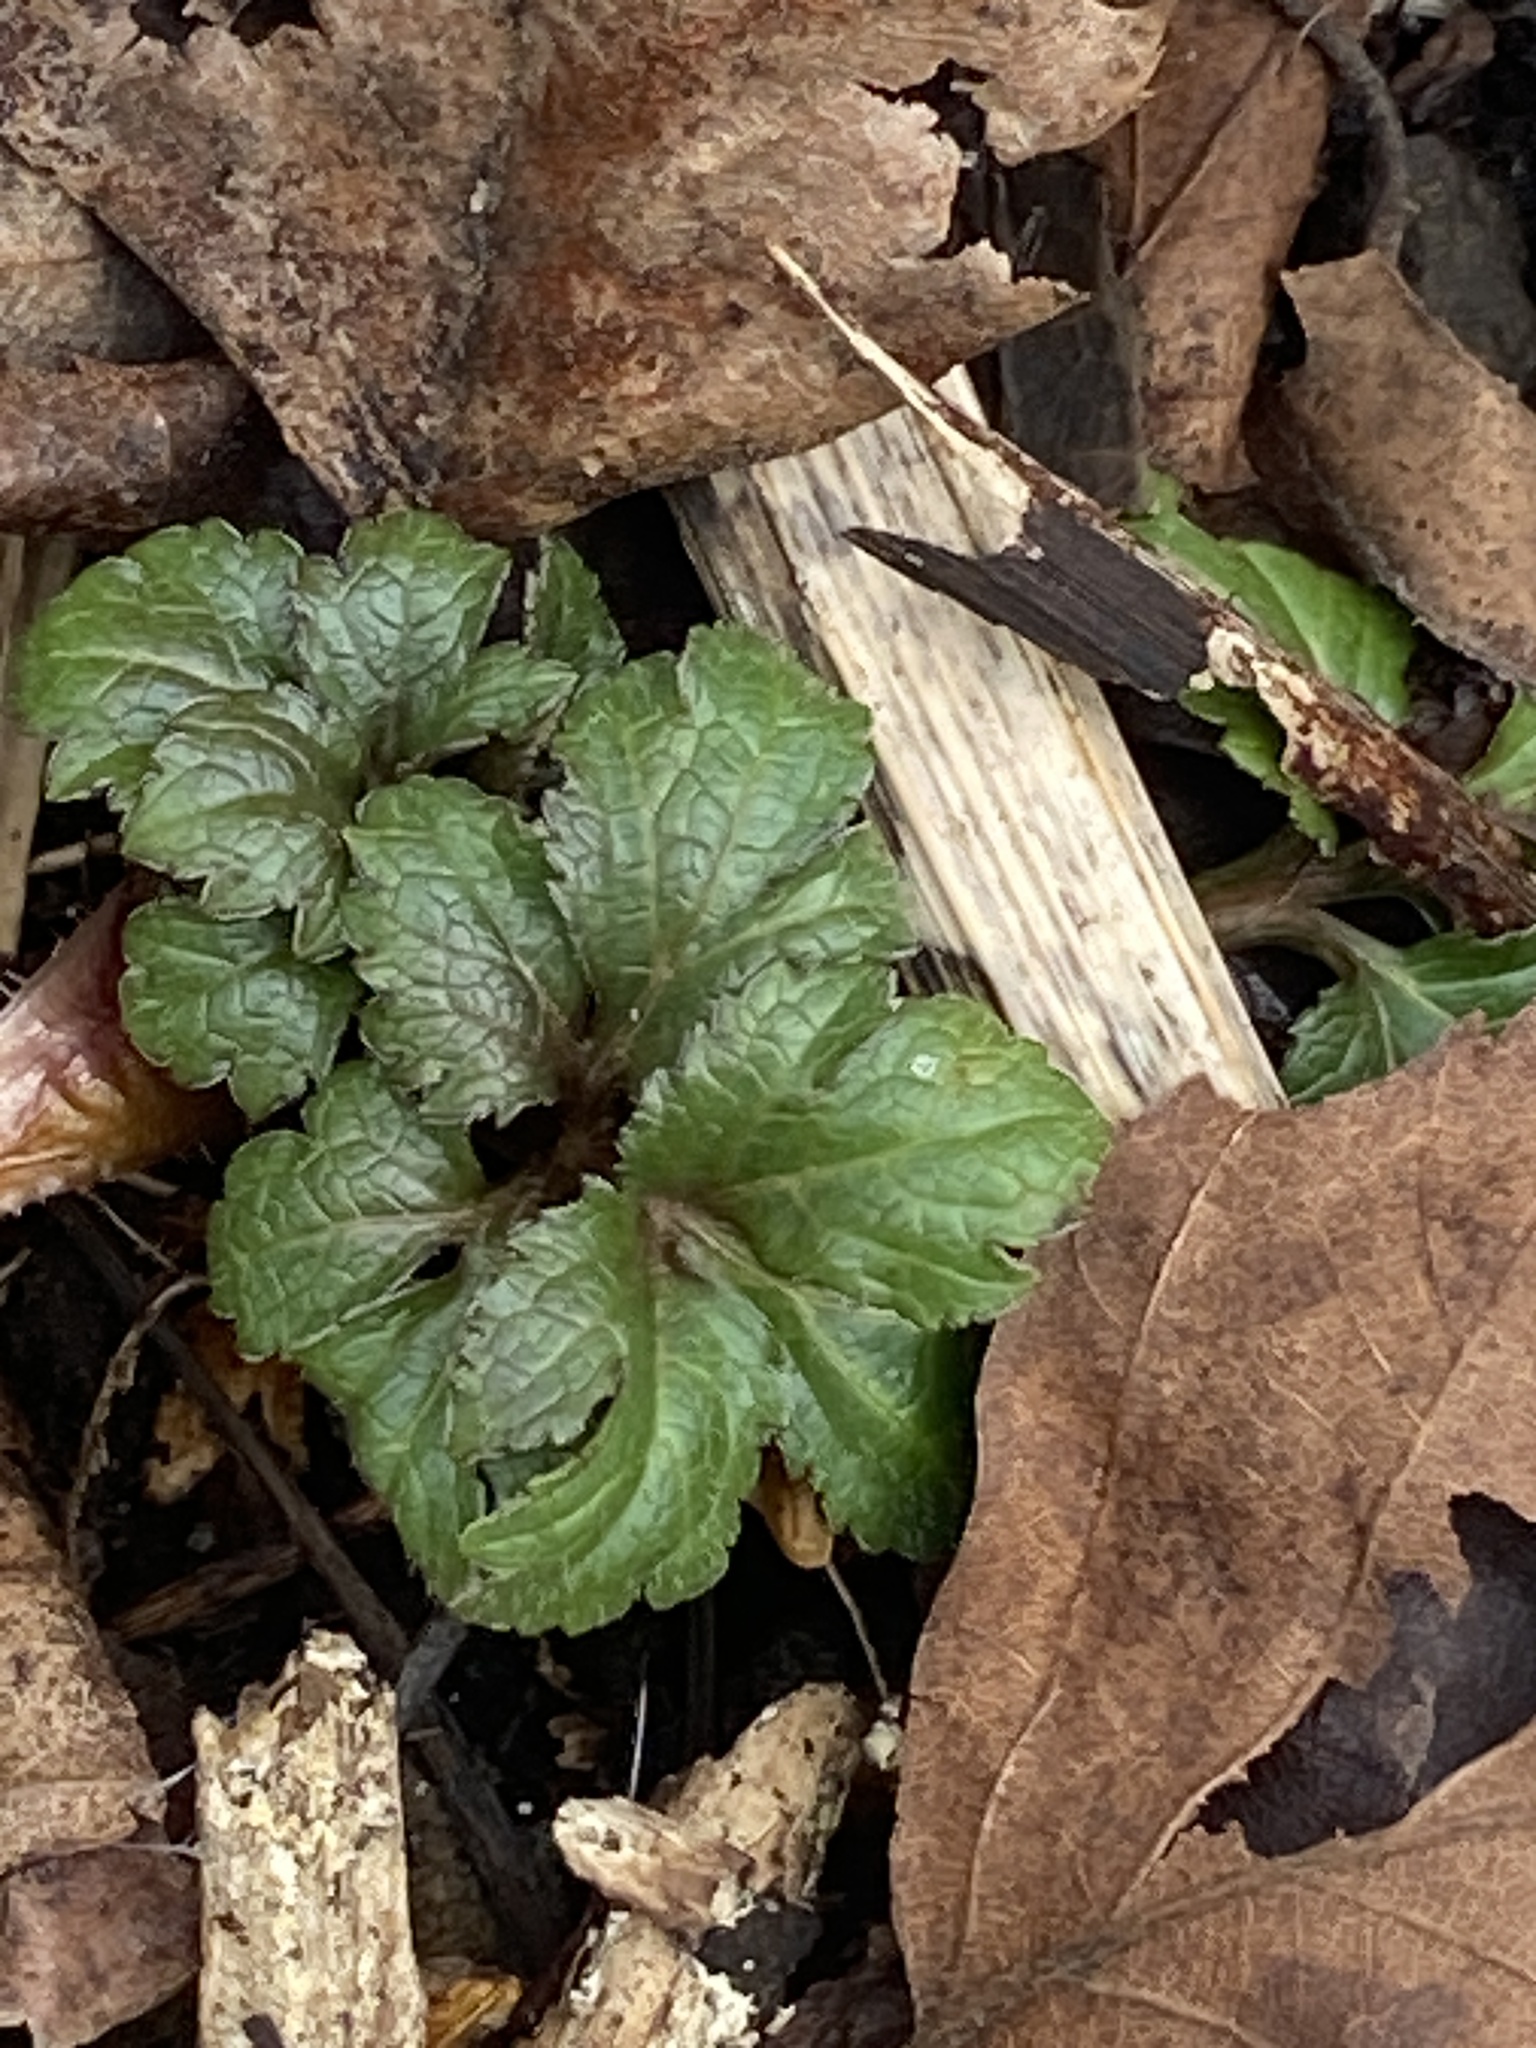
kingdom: Plantae
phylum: Tracheophyta
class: Magnoliopsida
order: Asterales
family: Asteraceae
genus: Rudbeckia
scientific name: Rudbeckia laciniata
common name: Coneflower
